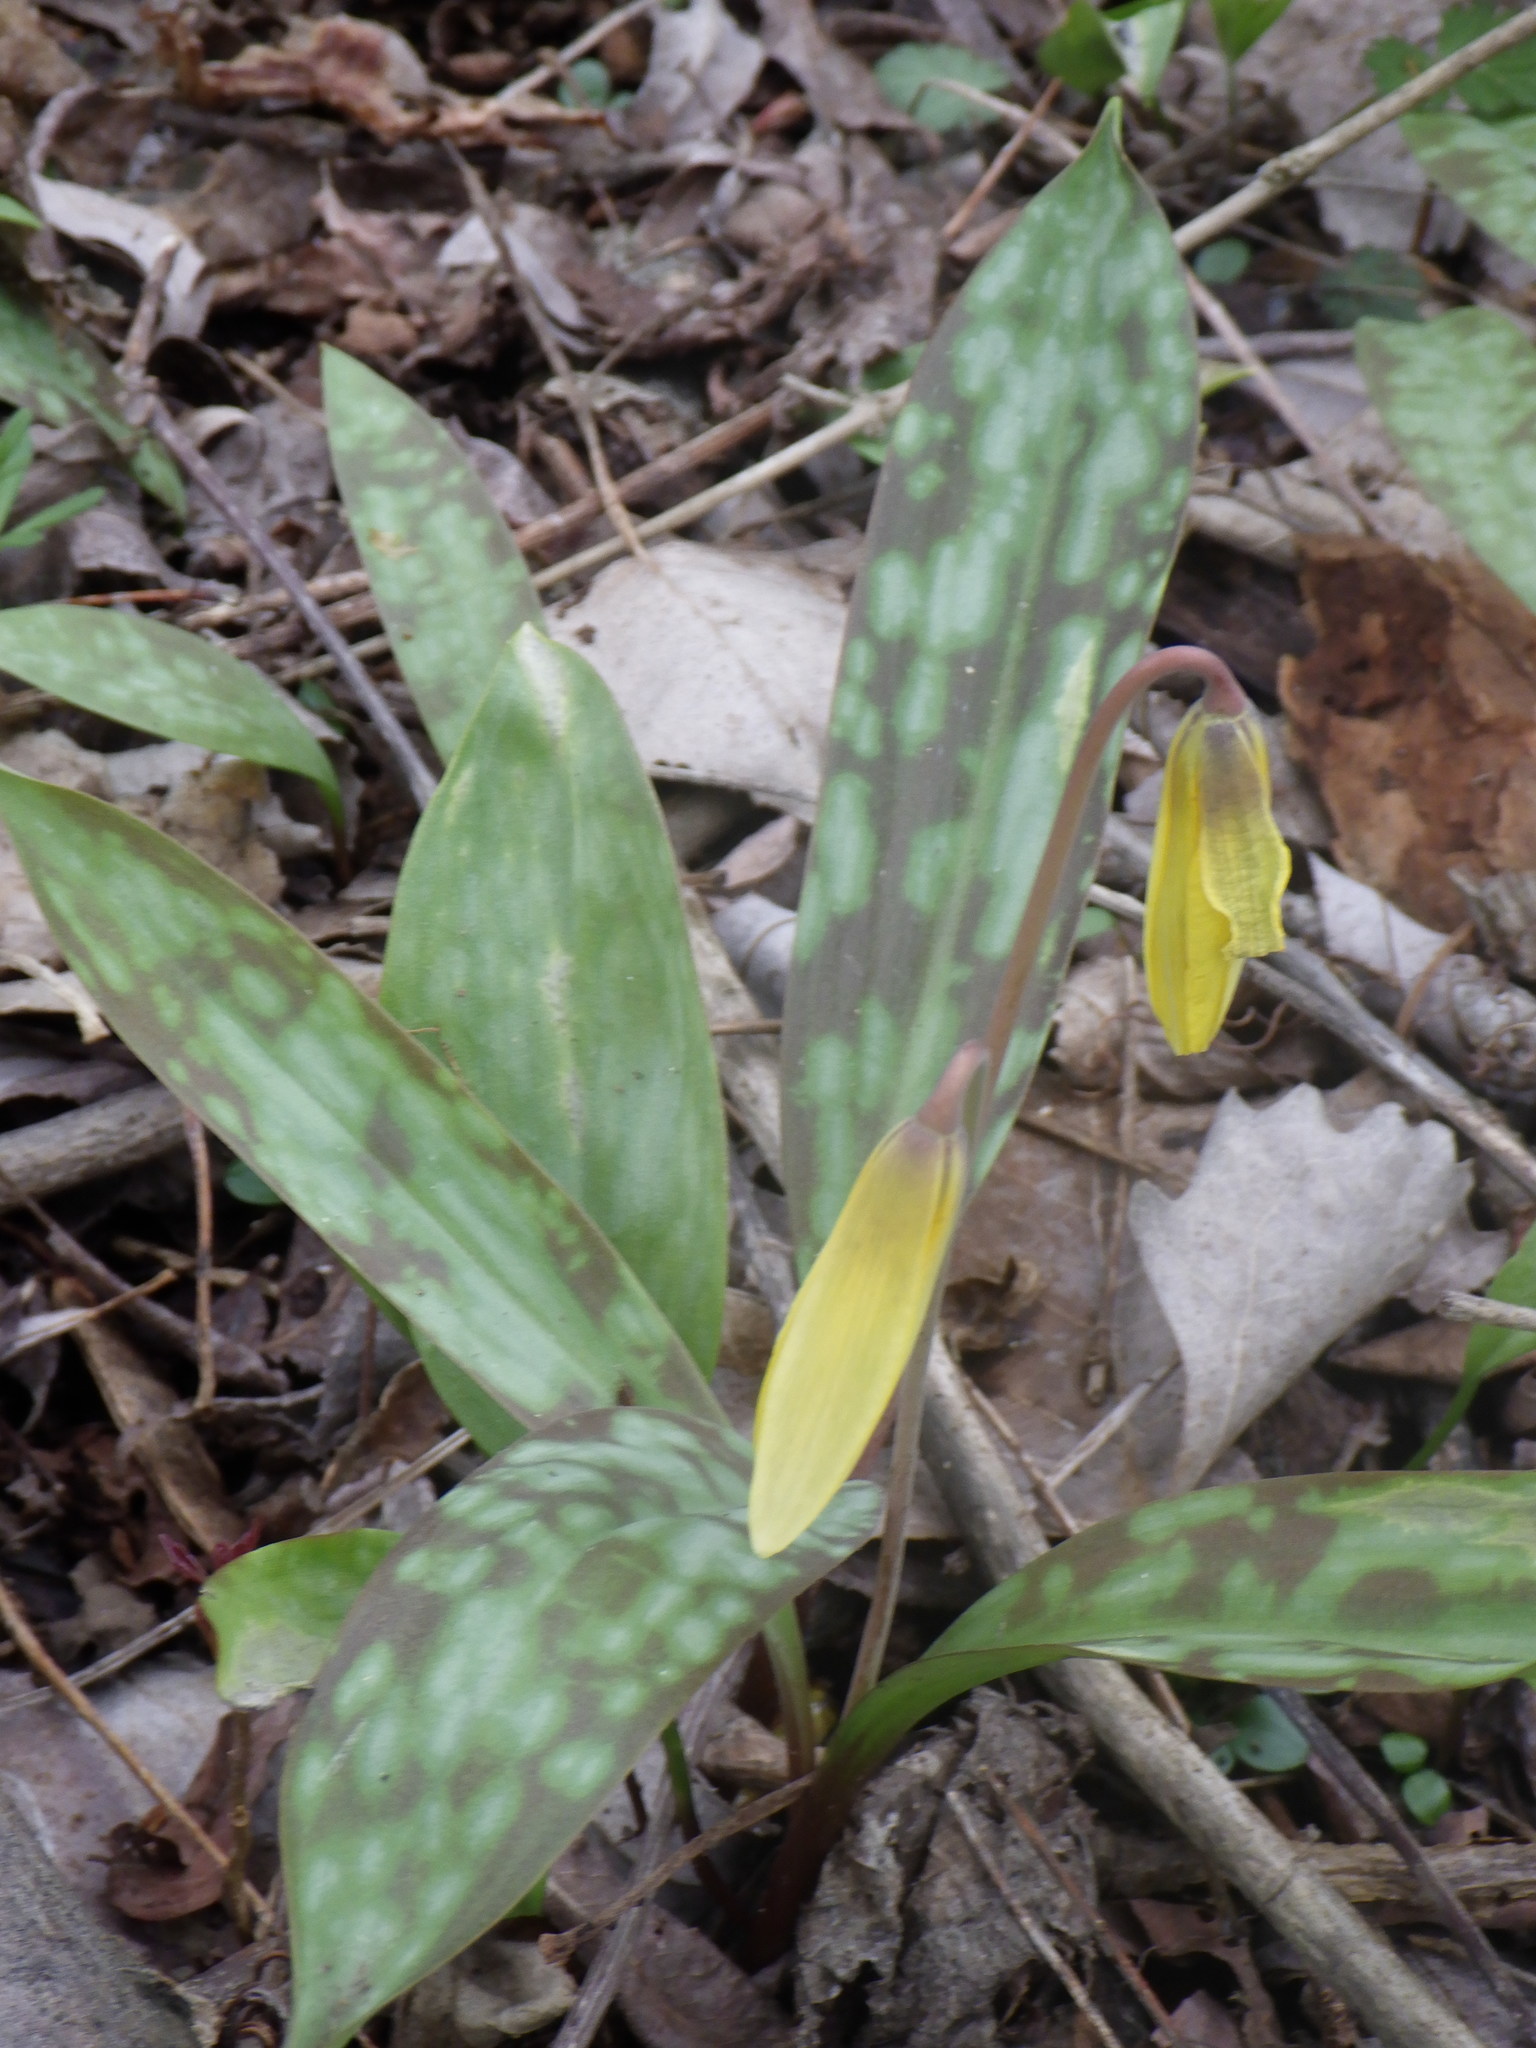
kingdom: Plantae
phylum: Tracheophyta
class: Liliopsida
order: Liliales
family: Liliaceae
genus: Erythronium
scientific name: Erythronium americanum
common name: Yellow adder's-tongue
